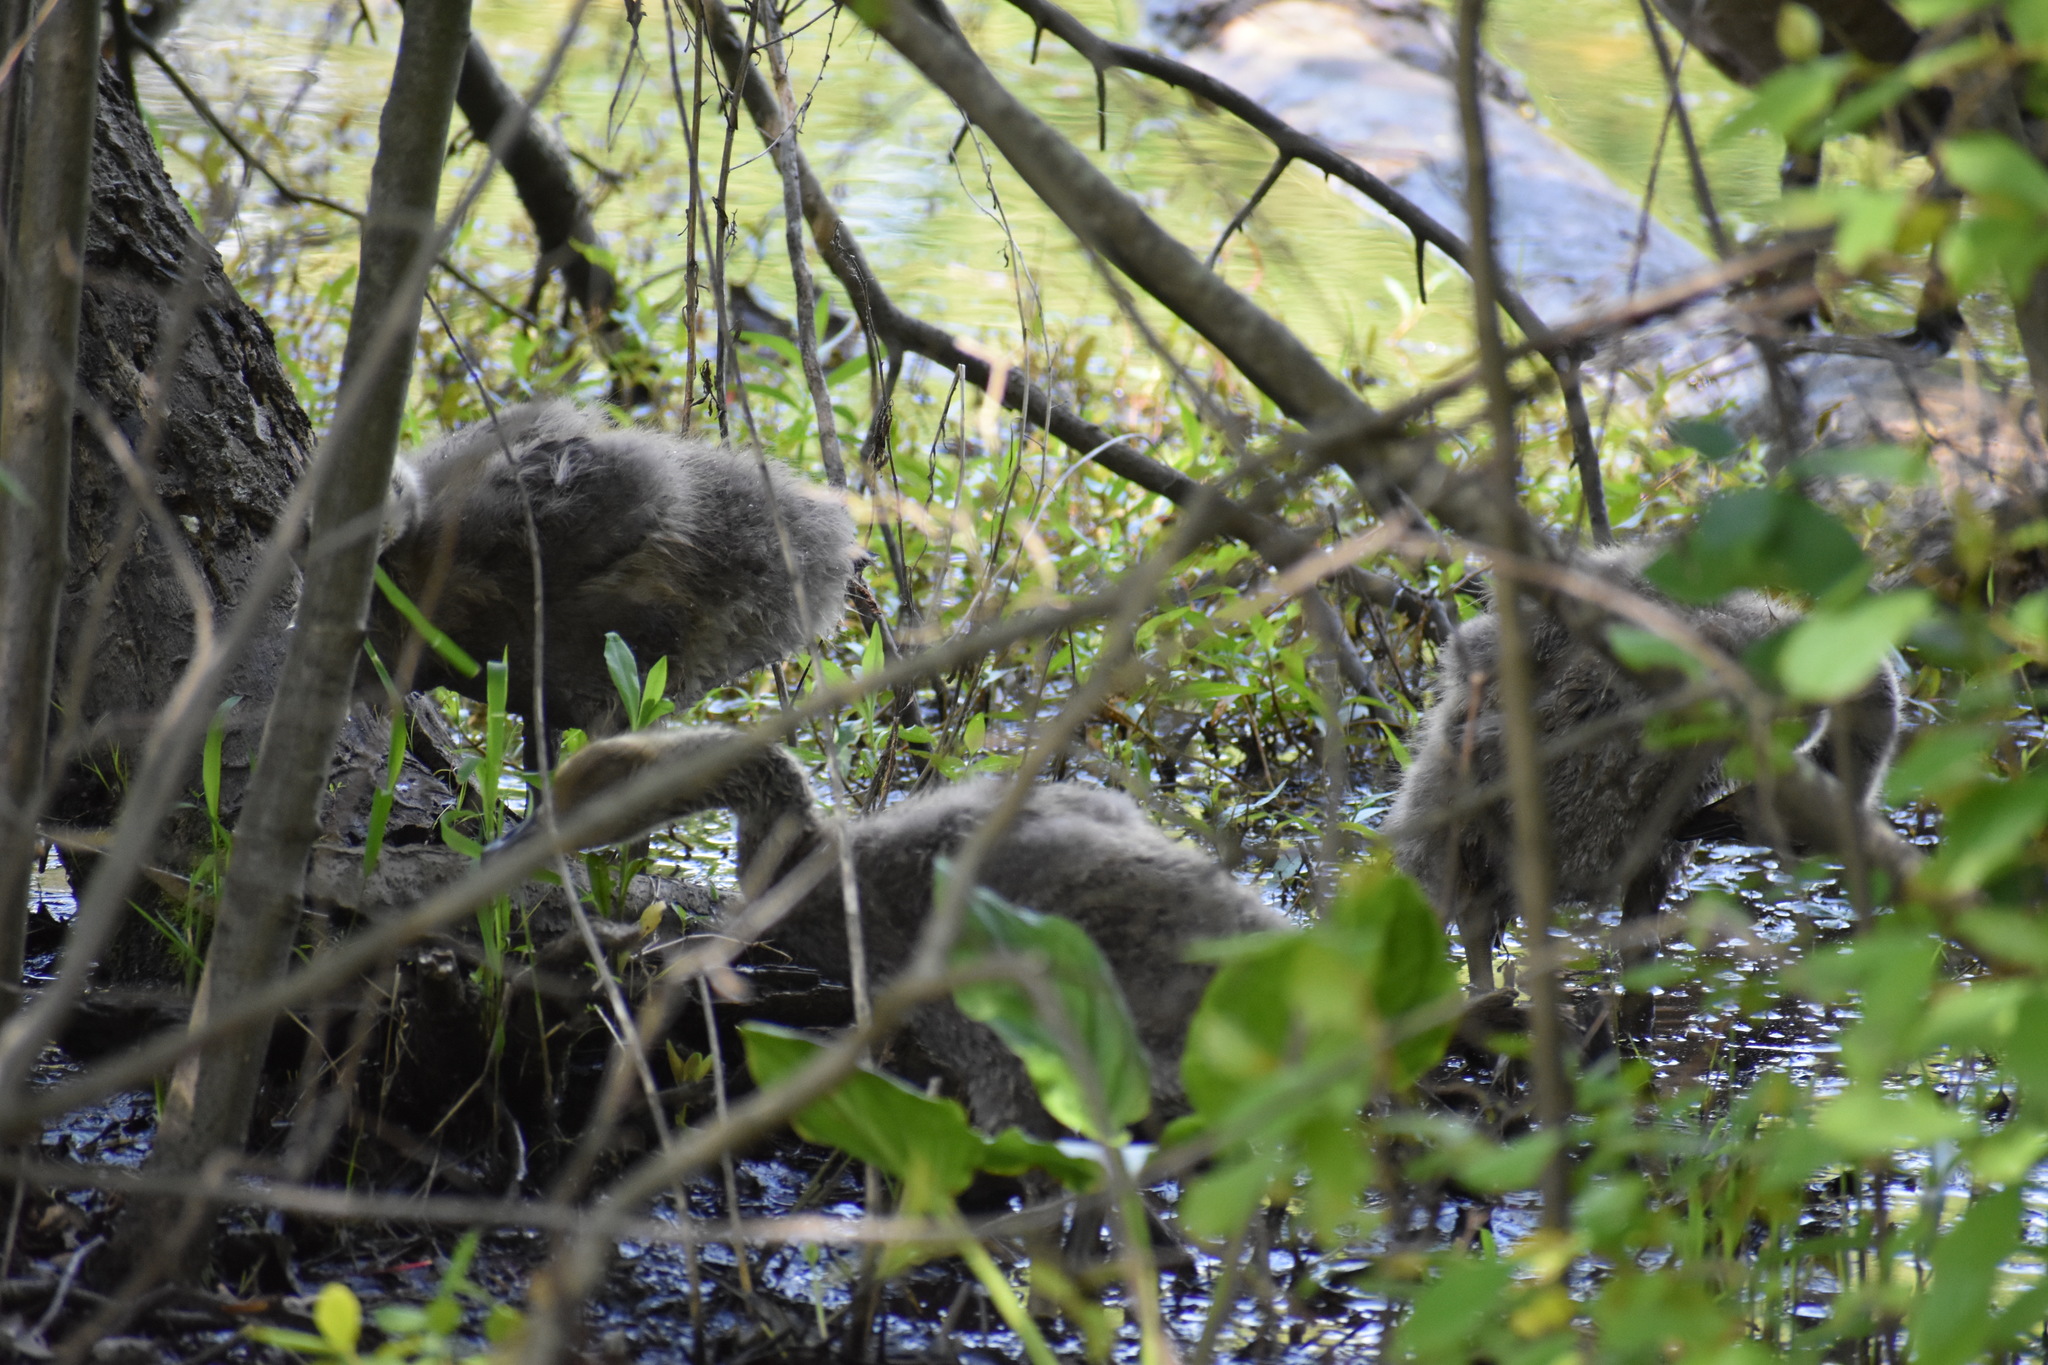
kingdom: Animalia
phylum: Chordata
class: Aves
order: Anseriformes
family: Anatidae
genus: Branta
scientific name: Branta canadensis
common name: Canada goose
